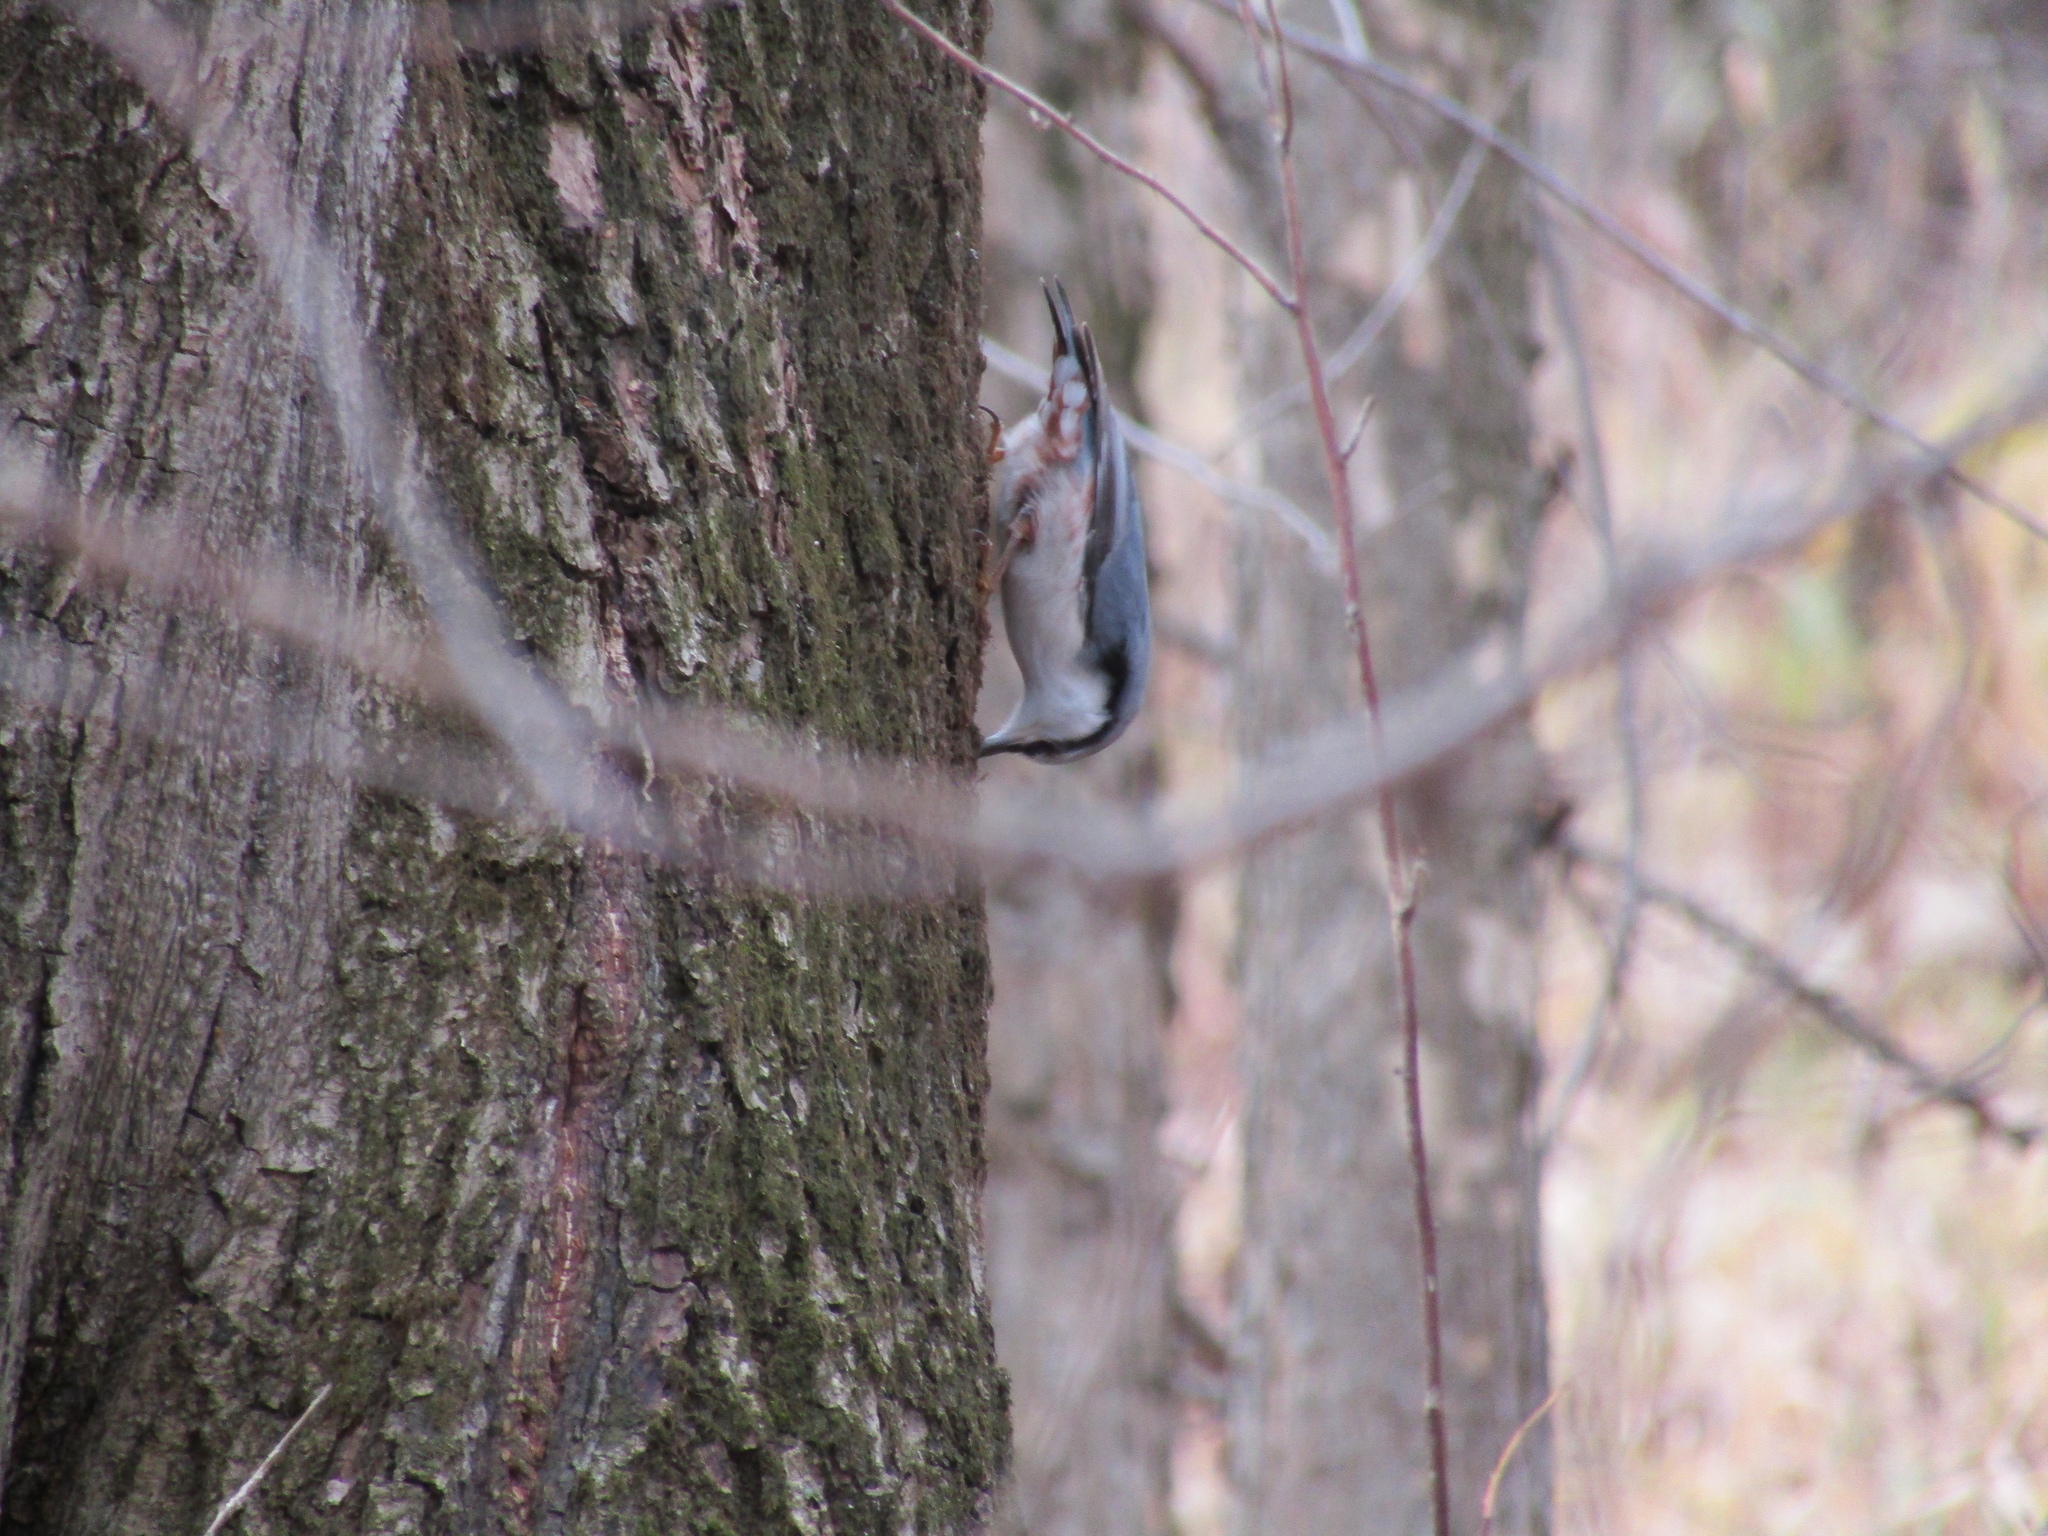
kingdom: Animalia
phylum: Chordata
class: Aves
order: Passeriformes
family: Sittidae
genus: Sitta
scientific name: Sitta europaea
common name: Eurasian nuthatch
